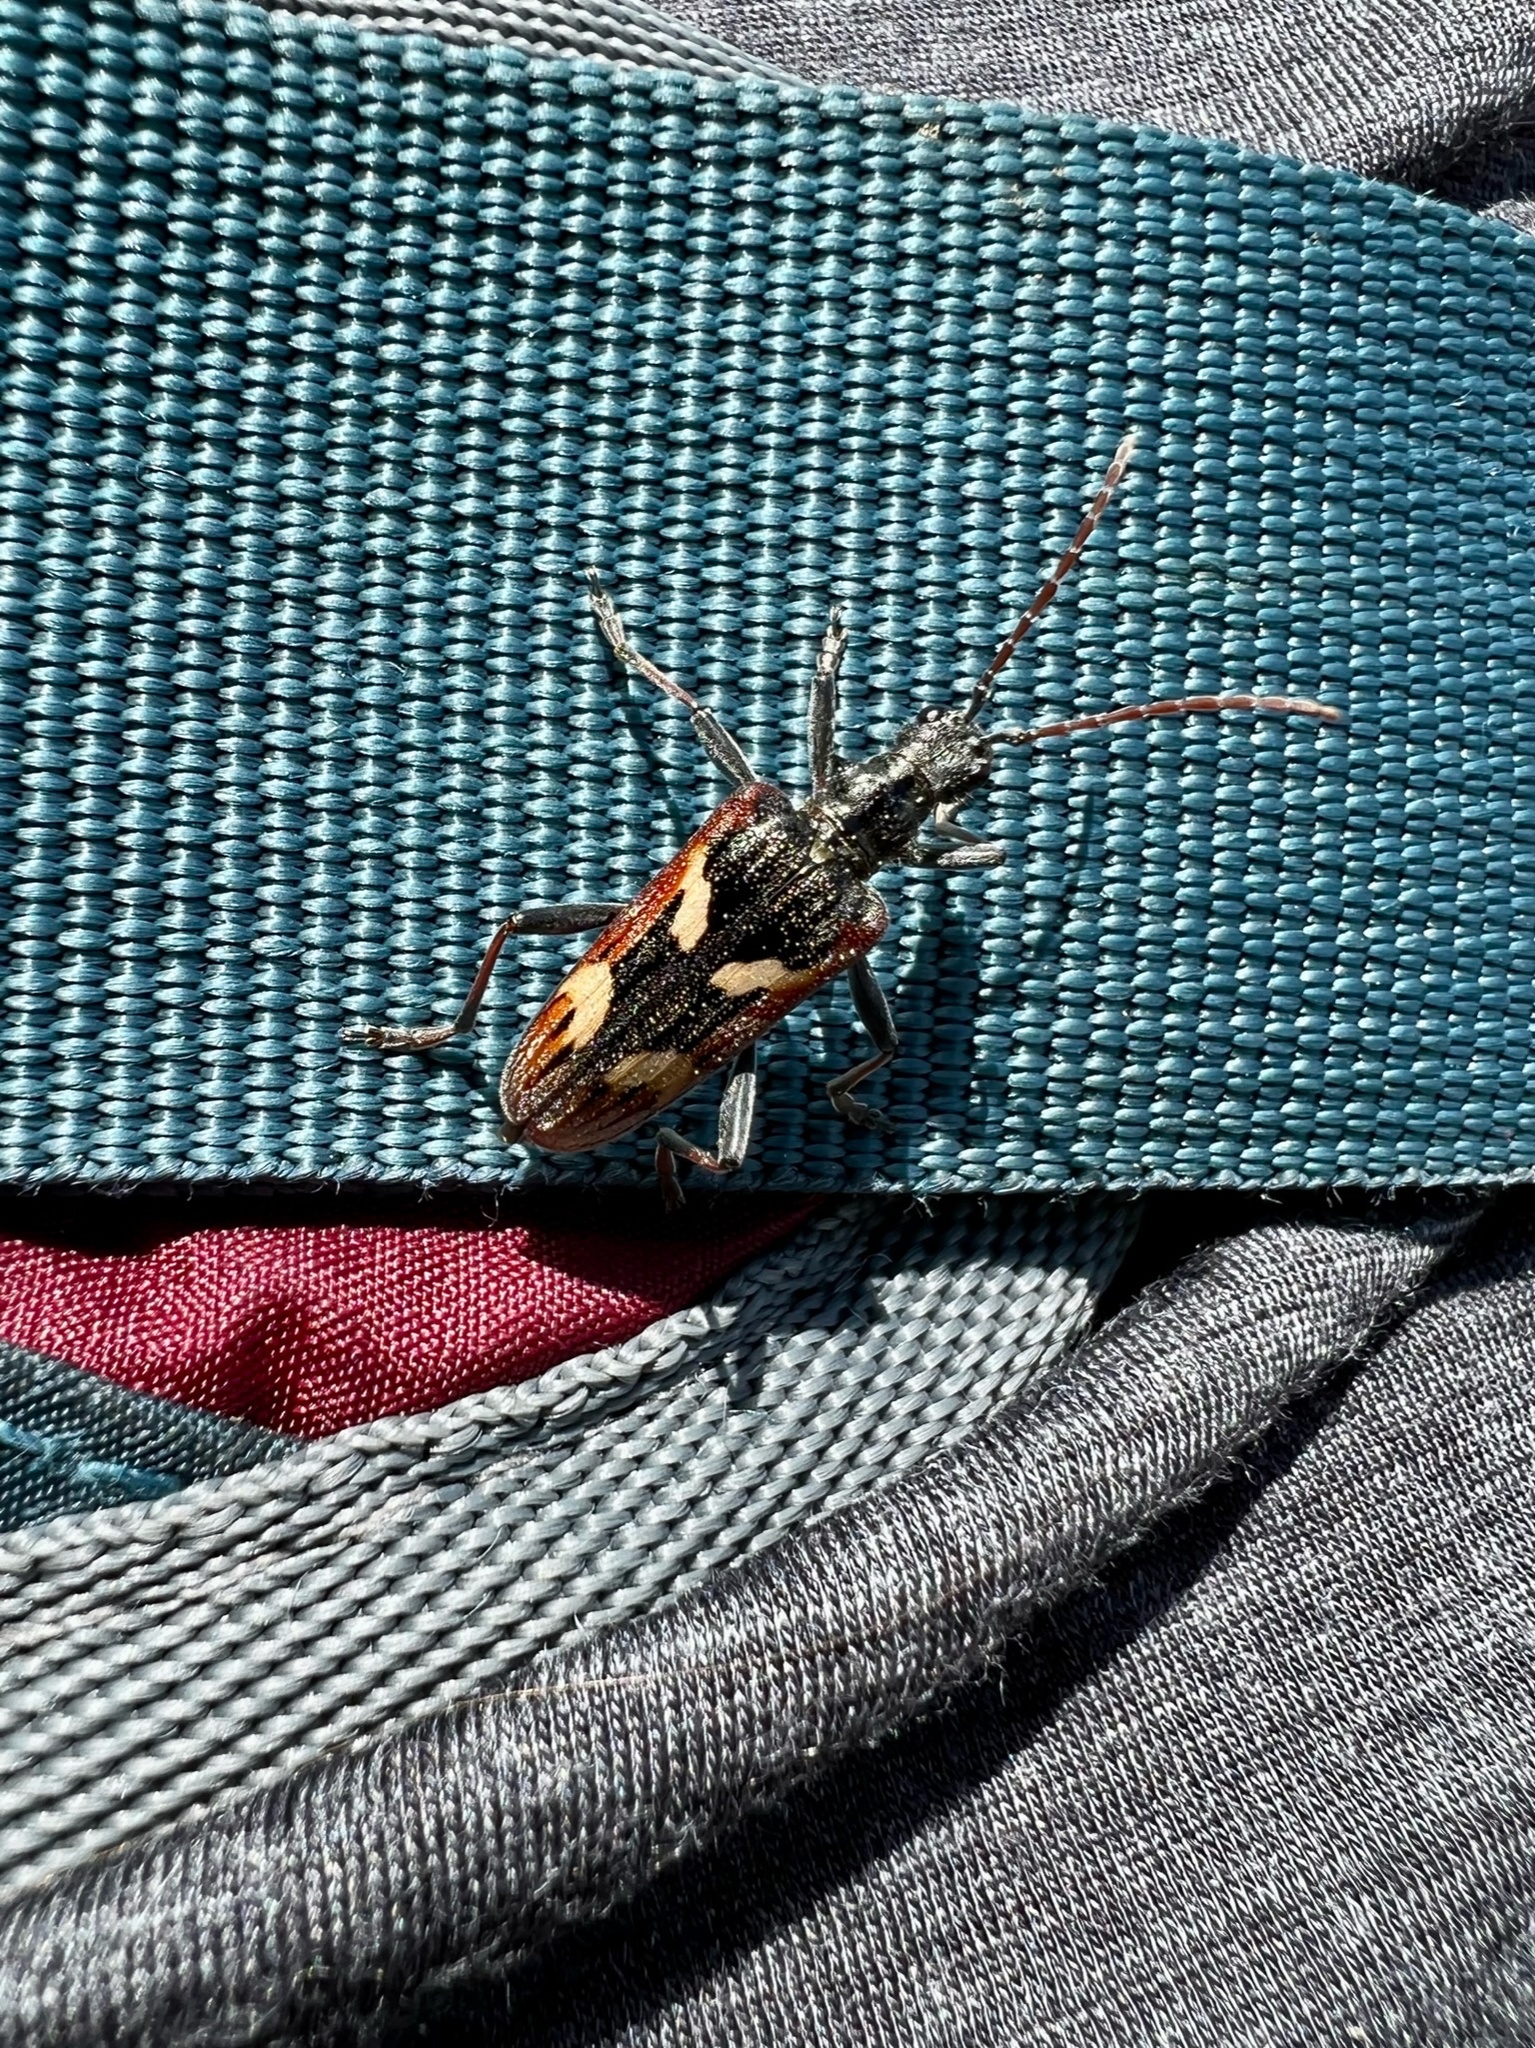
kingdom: Animalia
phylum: Arthropoda
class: Insecta
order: Coleoptera
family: Cerambycidae
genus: Rhagium
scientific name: Rhagium bifasciatum
